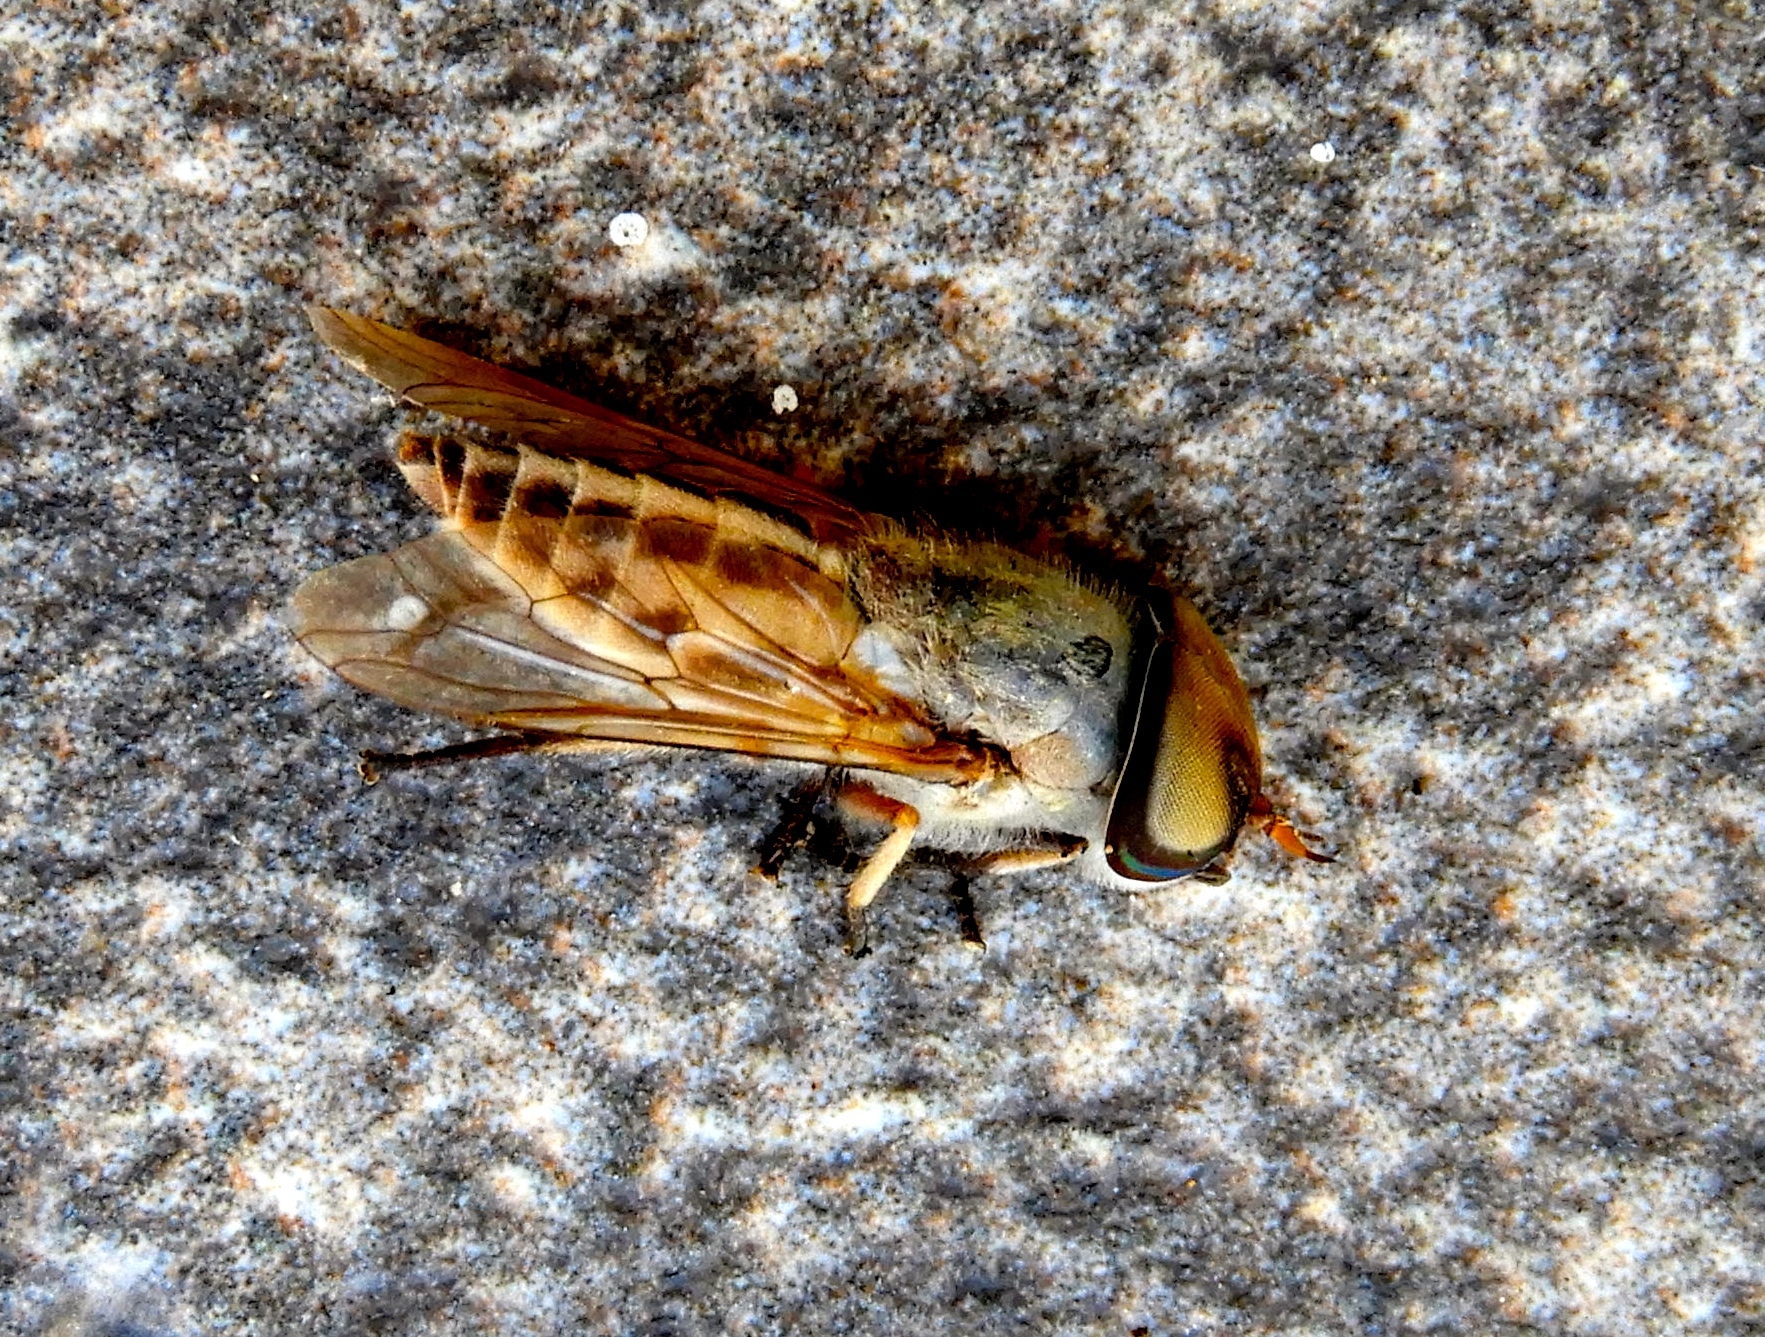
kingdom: Animalia
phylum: Arthropoda
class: Insecta
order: Diptera
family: Tabanidae
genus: Tabanus
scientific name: Tabanus
